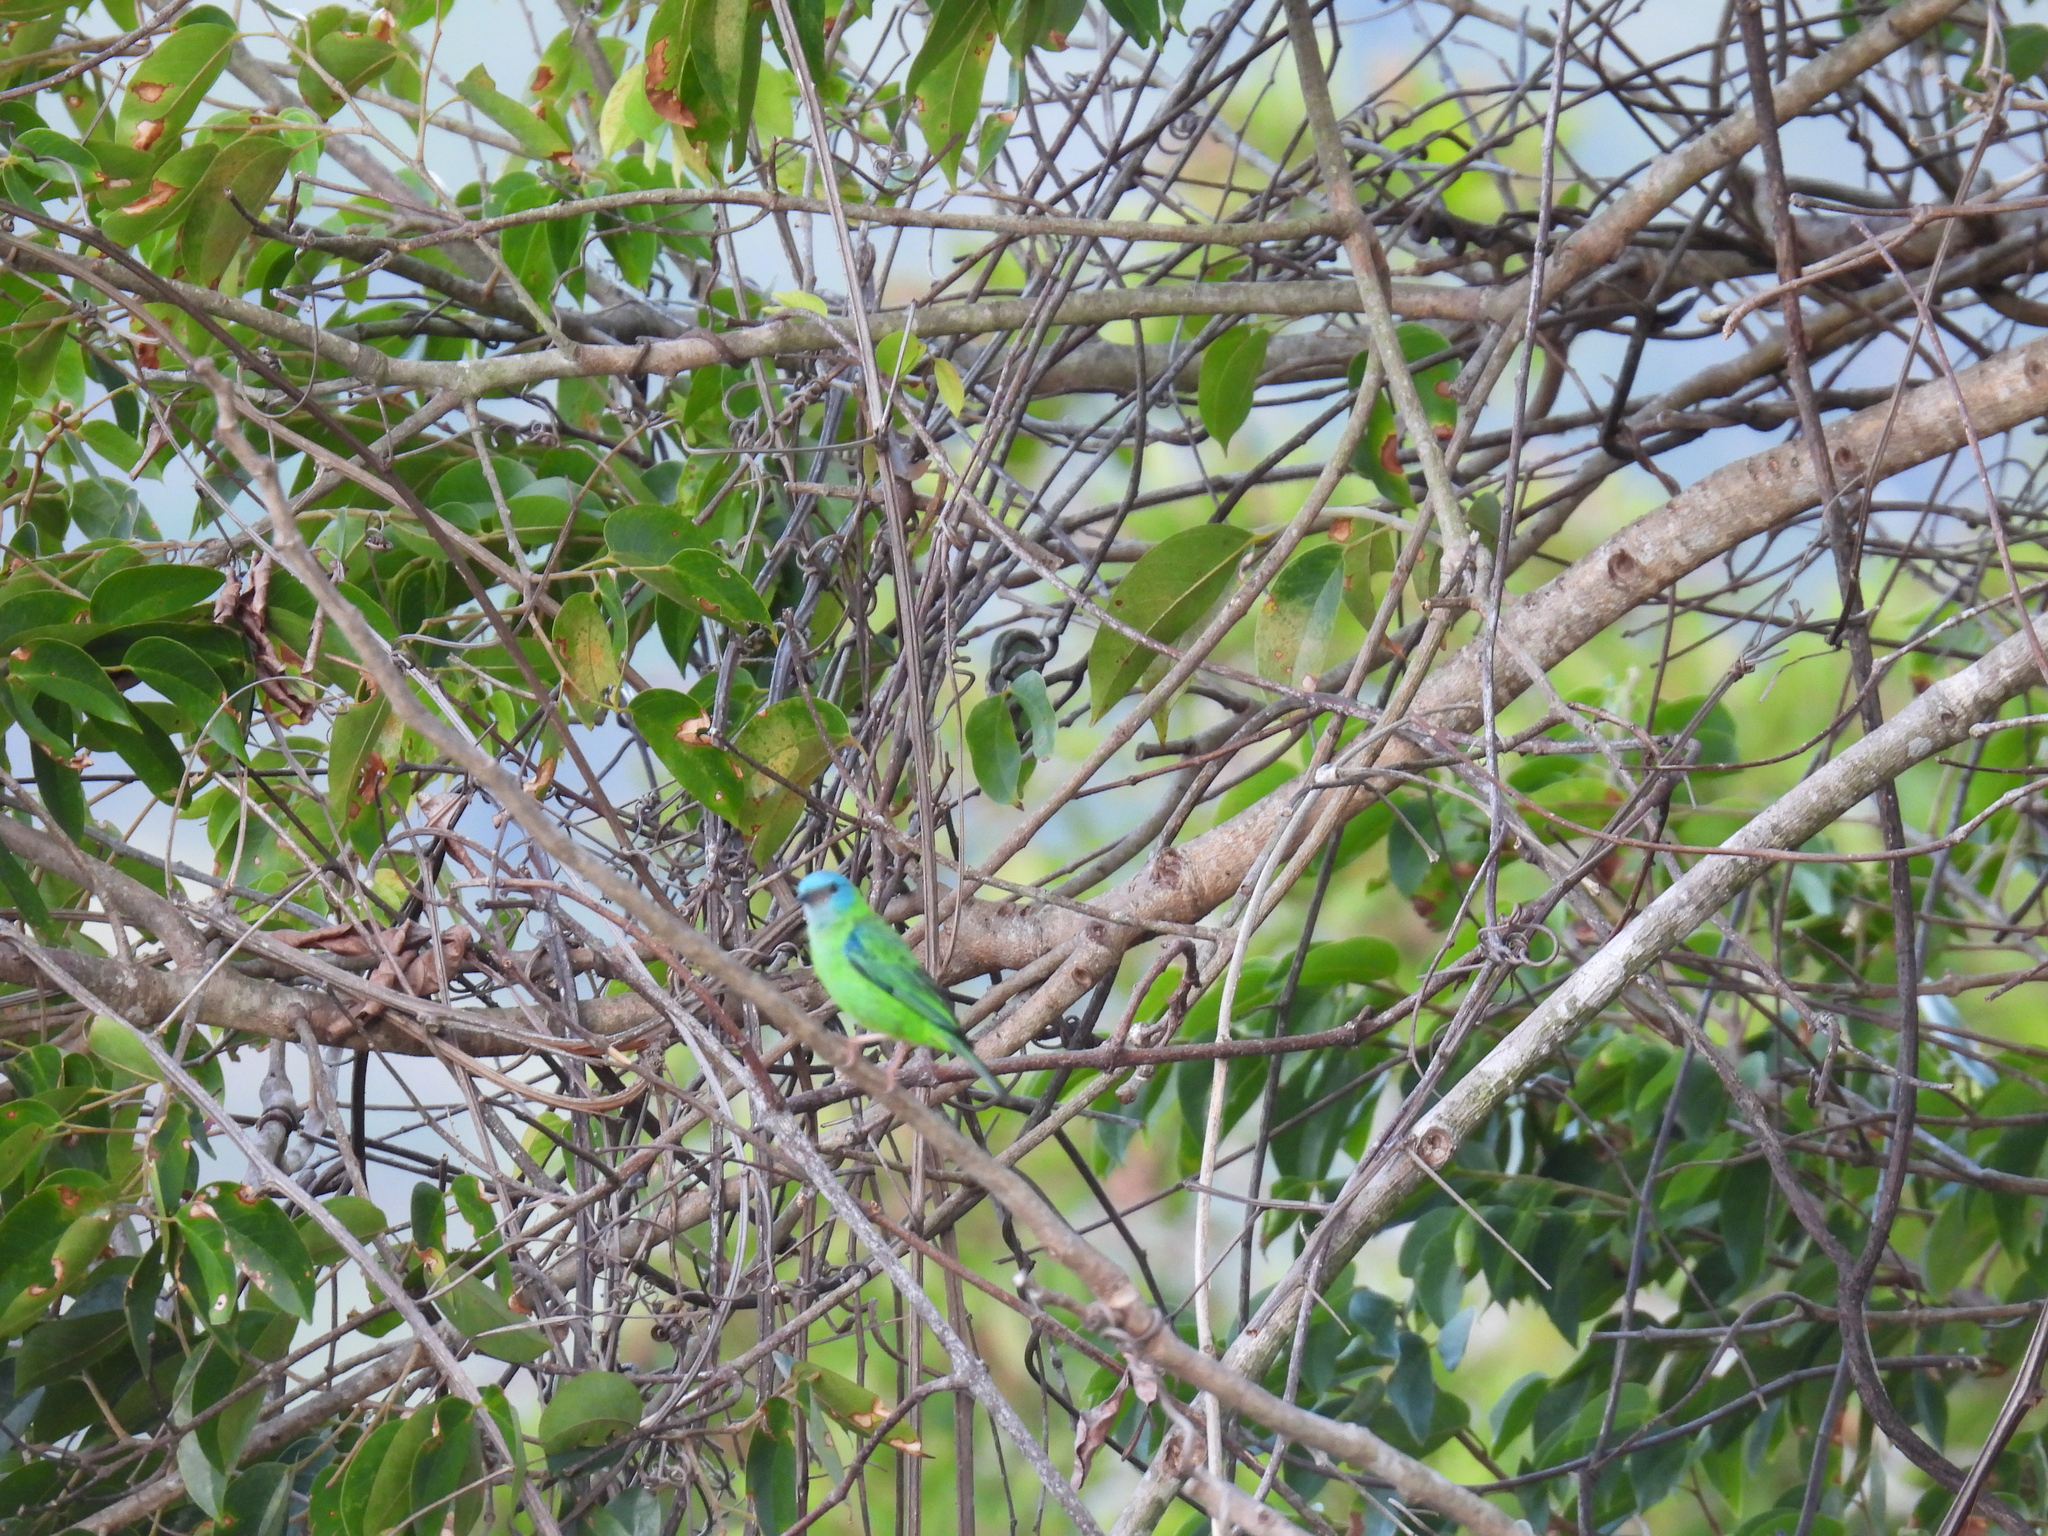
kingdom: Animalia
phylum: Chordata
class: Aves
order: Passeriformes
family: Thraupidae
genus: Dacnis
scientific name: Dacnis cayana
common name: Blue dacnis
